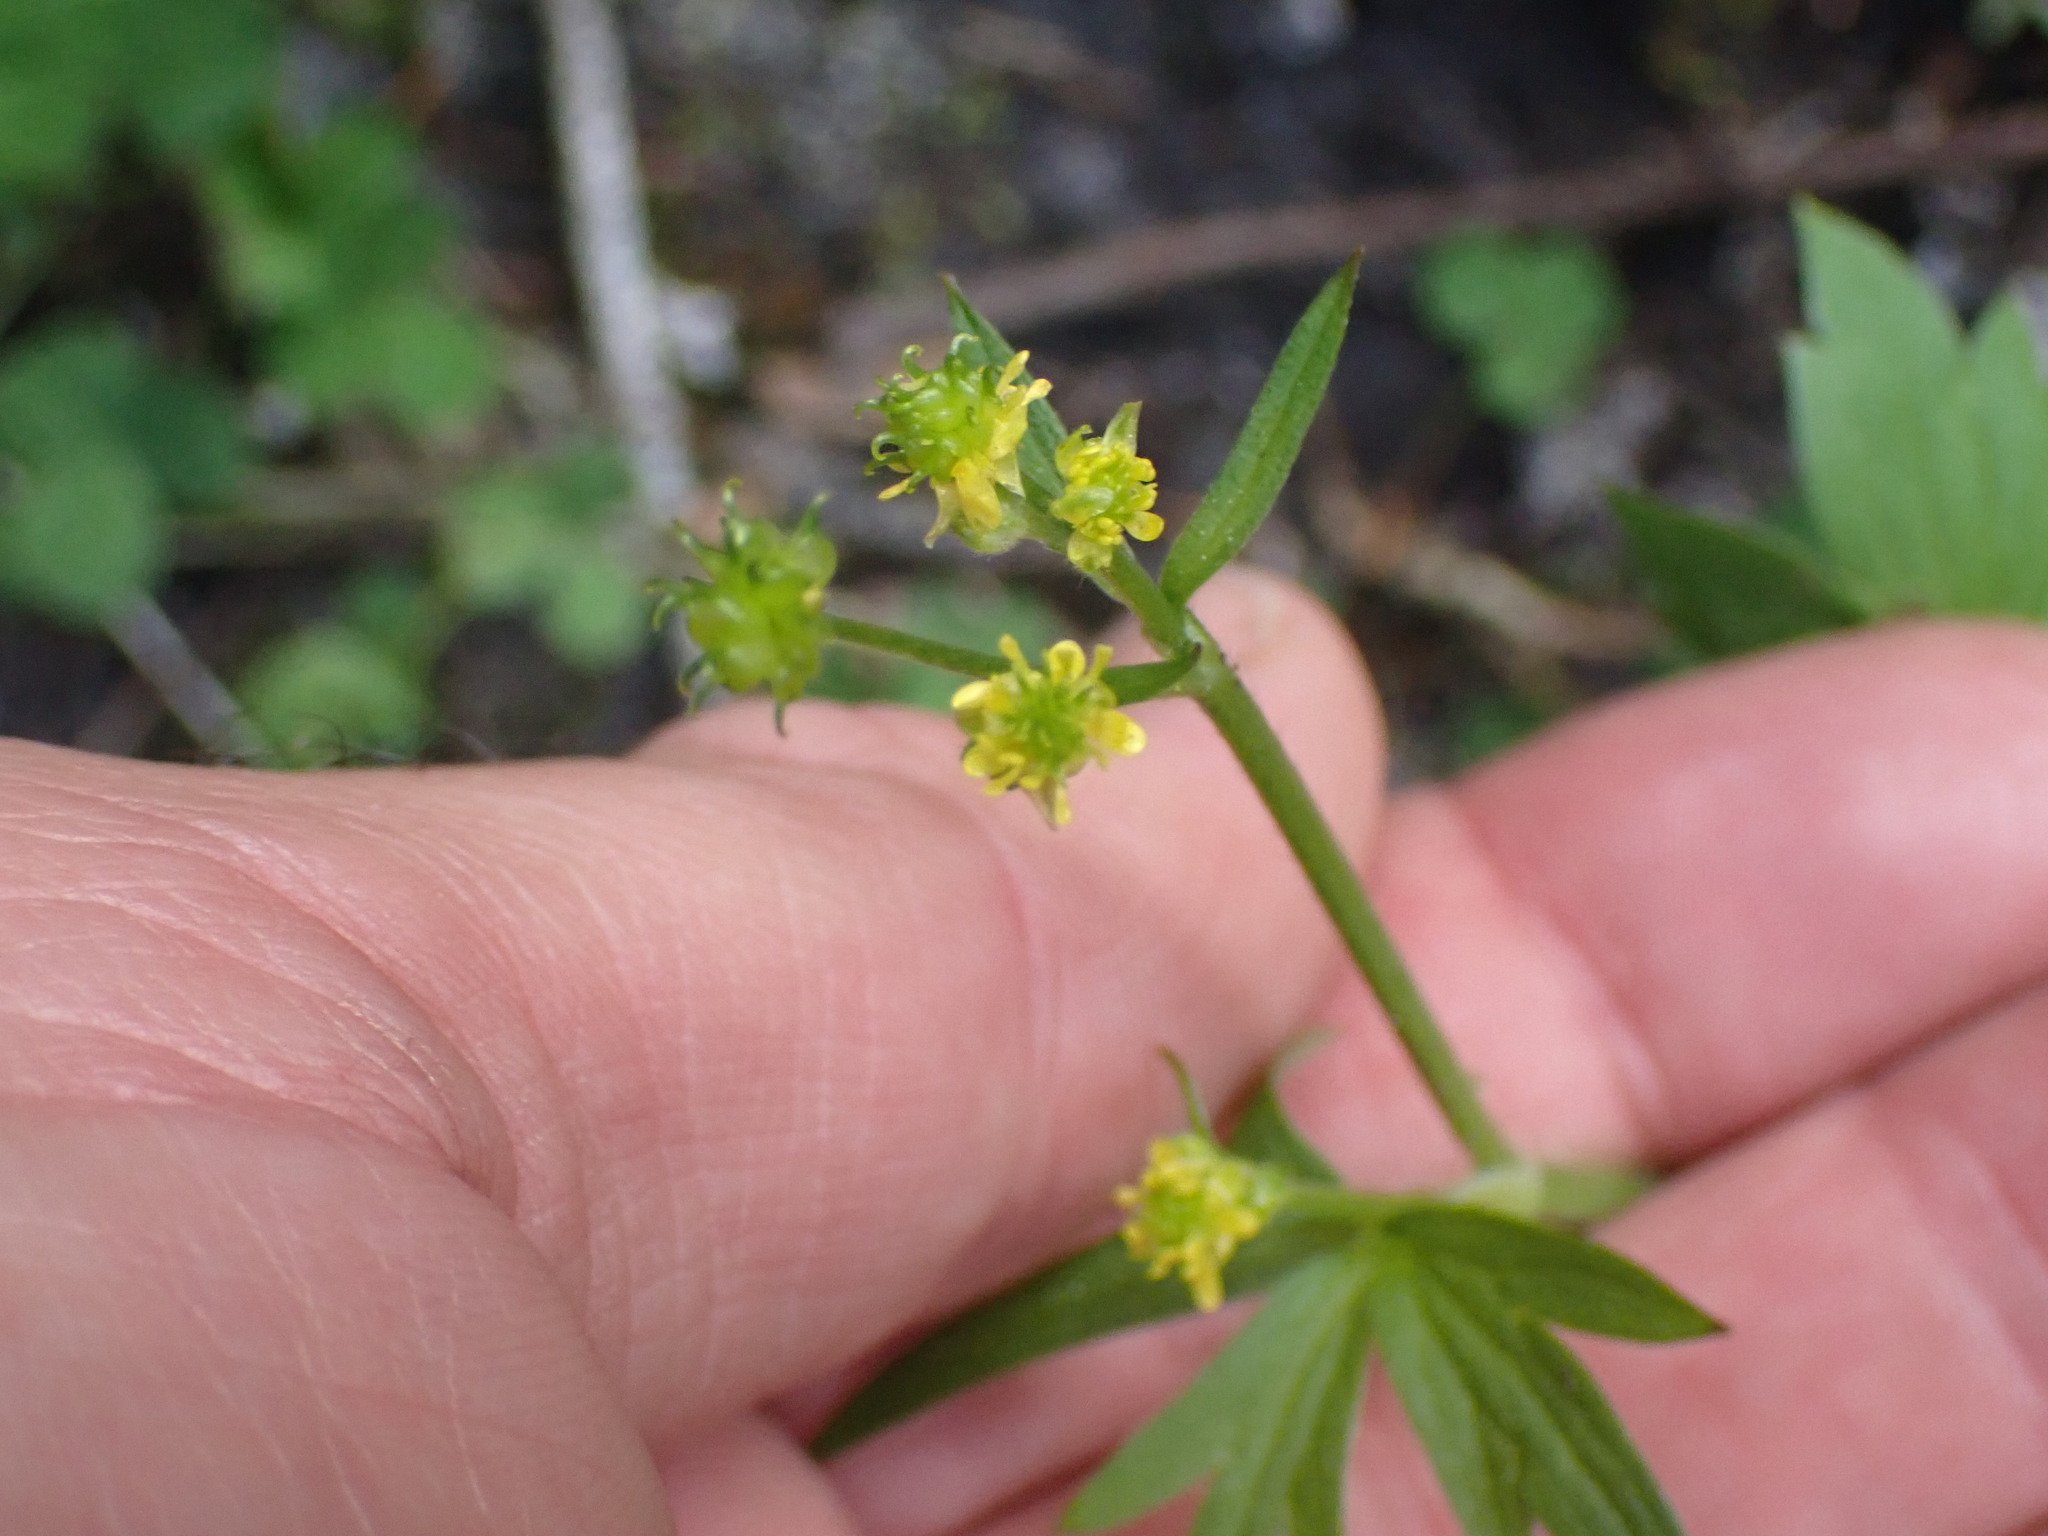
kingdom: Plantae
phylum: Tracheophyta
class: Magnoliopsida
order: Ranunculales
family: Ranunculaceae
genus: Ranunculus
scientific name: Ranunculus uncinatus
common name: Little buttercup
